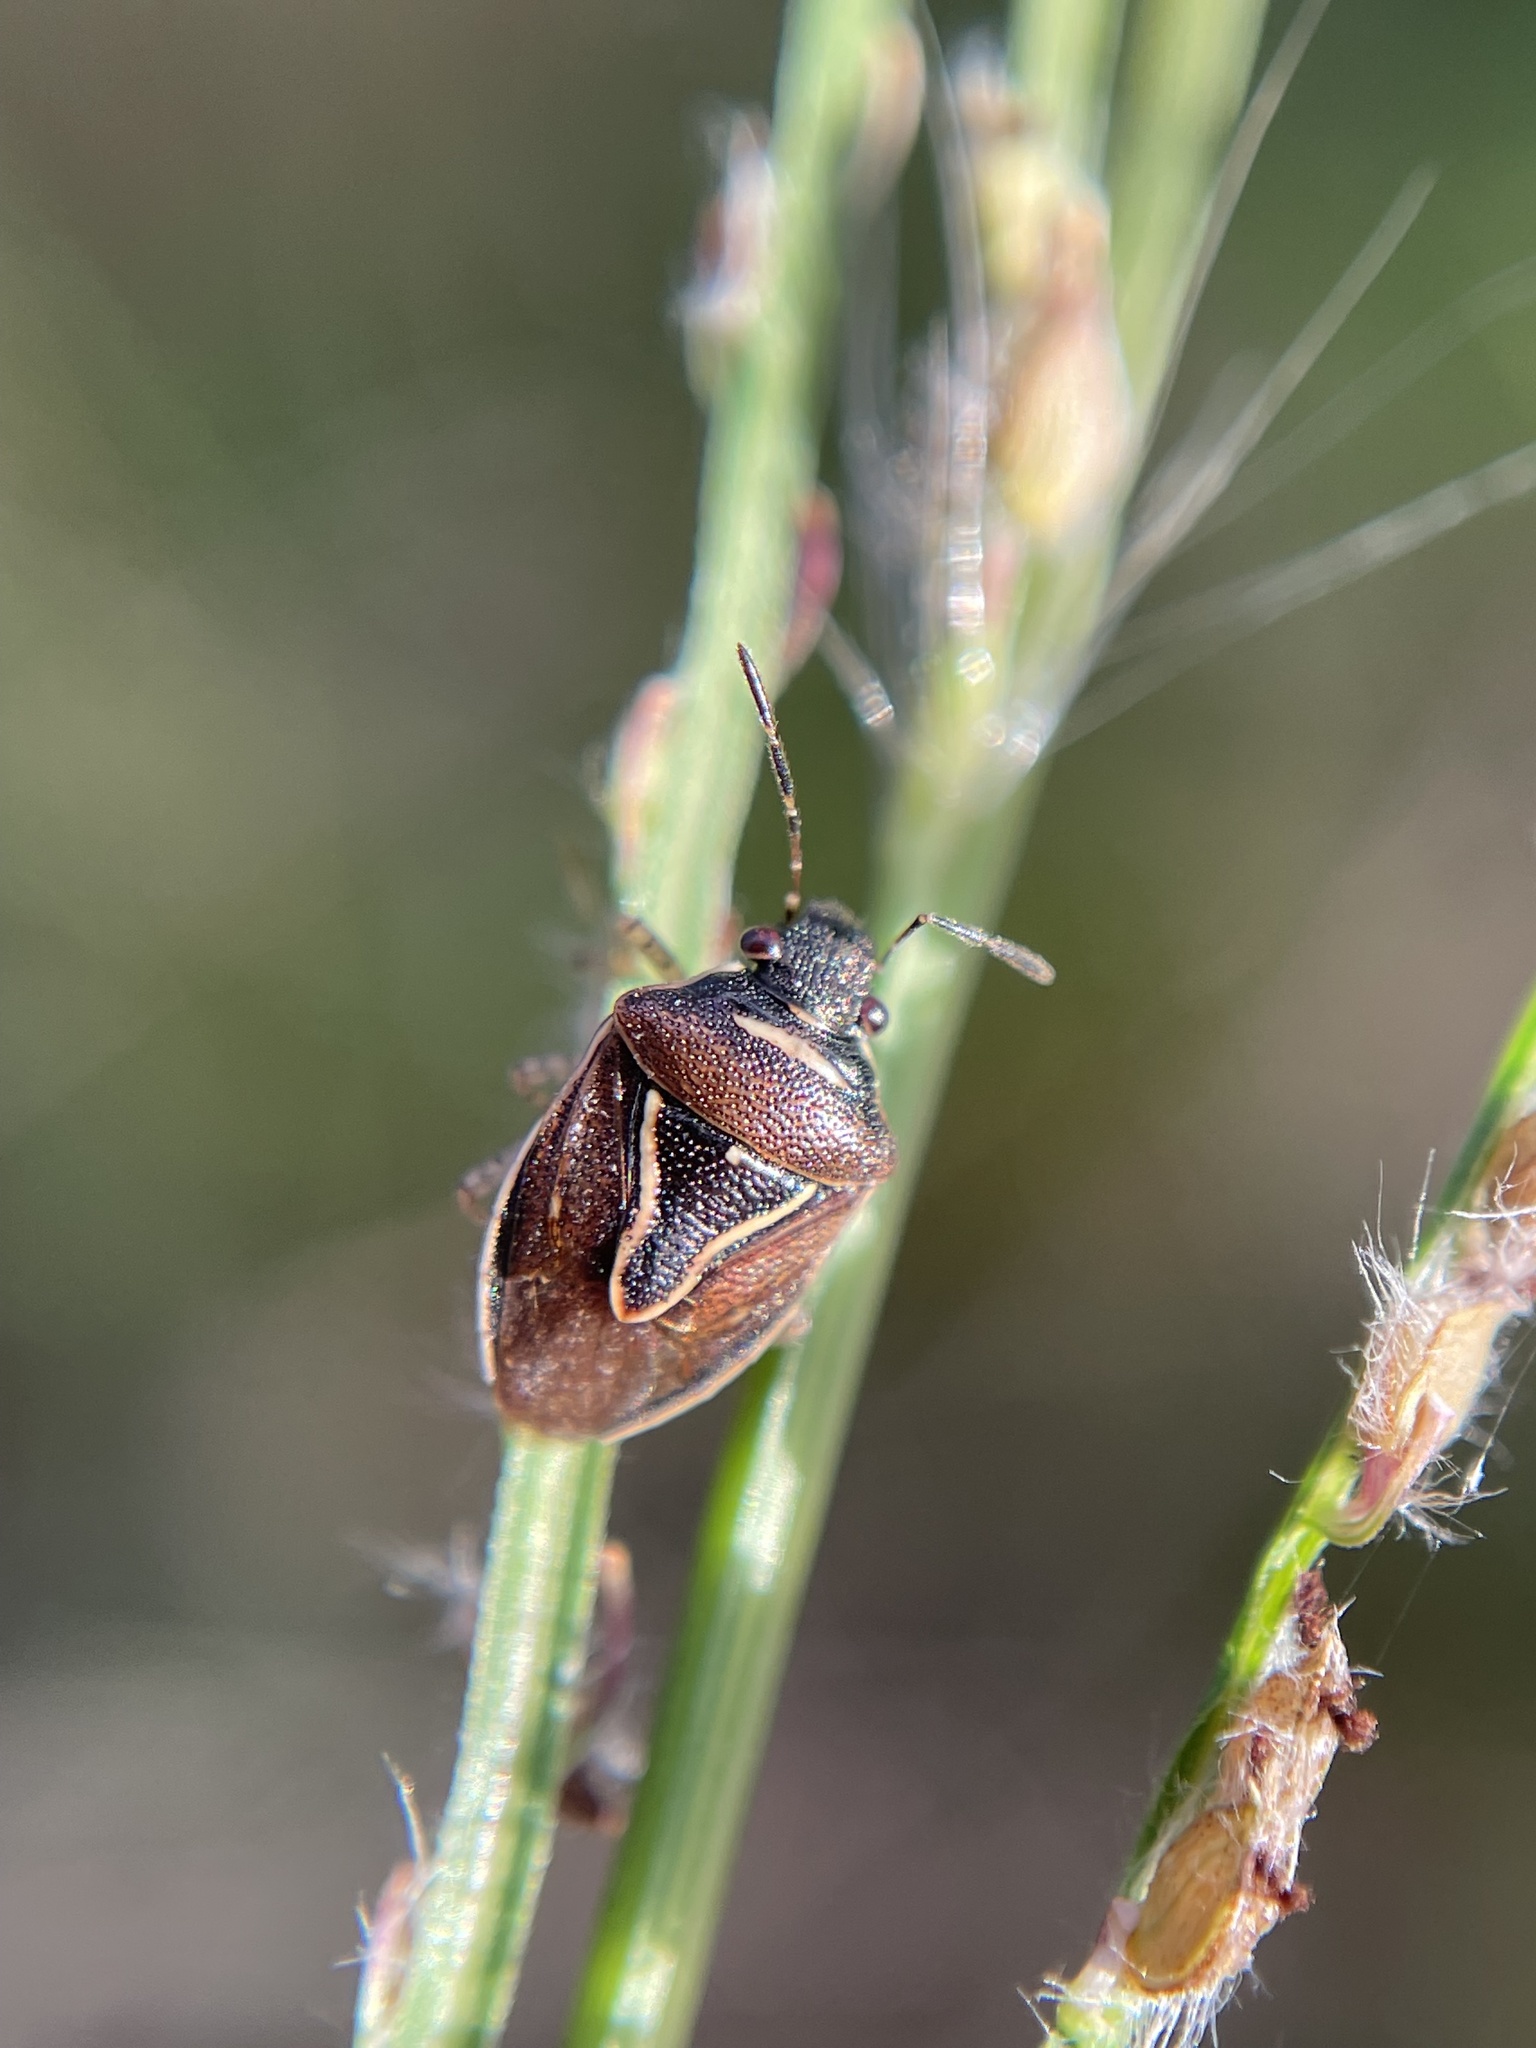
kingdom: Animalia
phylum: Arthropoda
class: Insecta
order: Hemiptera
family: Pentatomidae
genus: Mormidea
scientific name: Mormidea lugens
